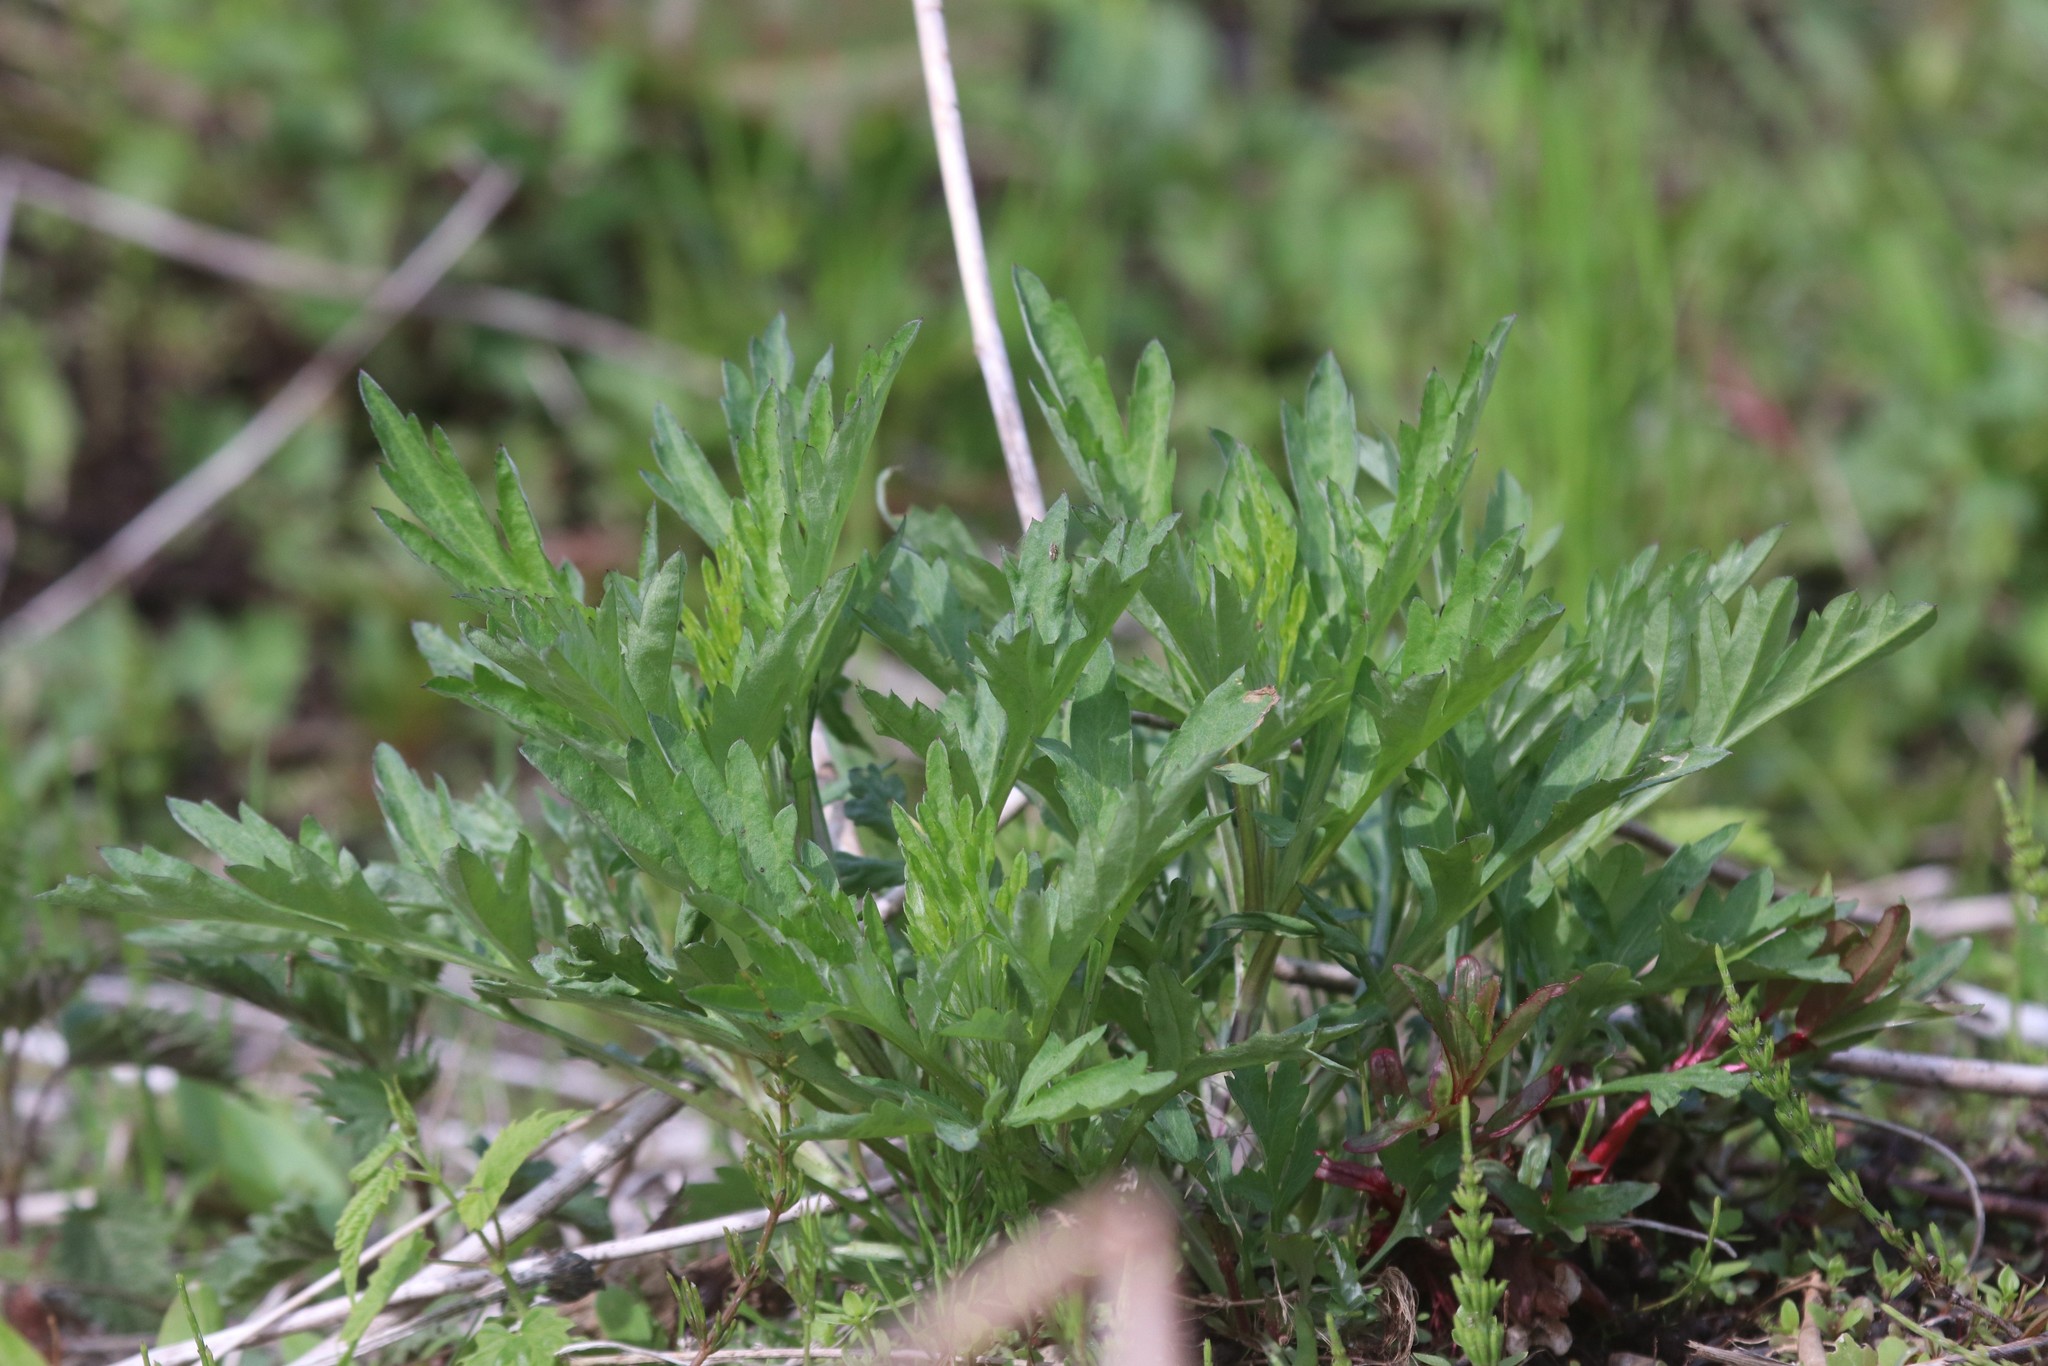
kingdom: Plantae
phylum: Tracheophyta
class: Magnoliopsida
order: Asterales
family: Asteraceae
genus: Artemisia
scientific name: Artemisia vulgaris
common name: Mugwort
